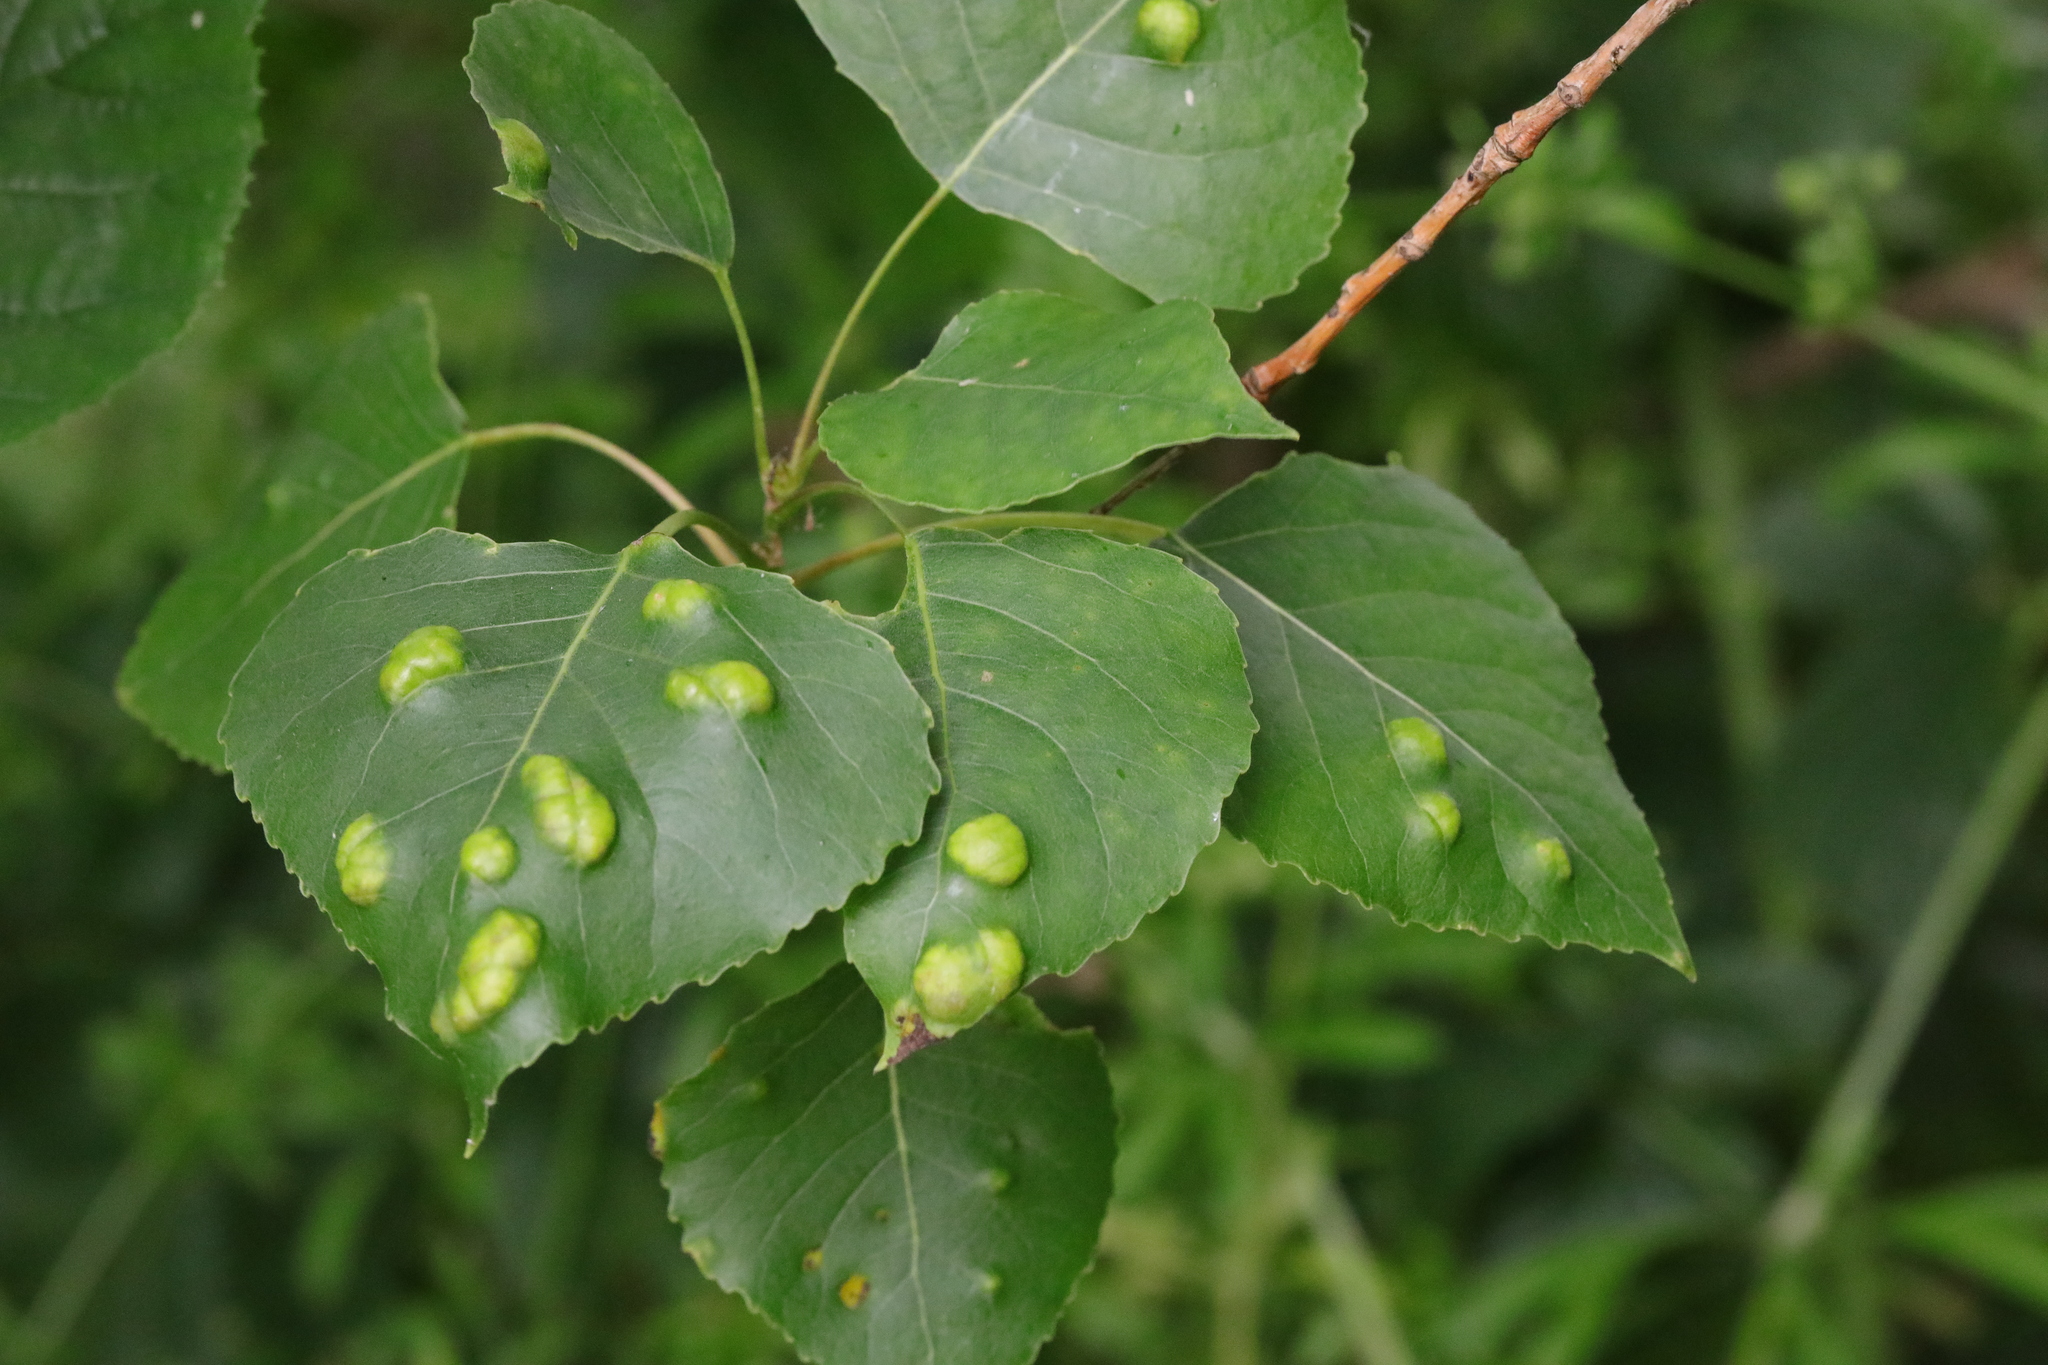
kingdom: Fungi
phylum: Ascomycota
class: Taphrinomycetes
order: Taphrinales
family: Taphrinaceae
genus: Taphrina
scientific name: Taphrina populina
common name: Poplar leaf curl
